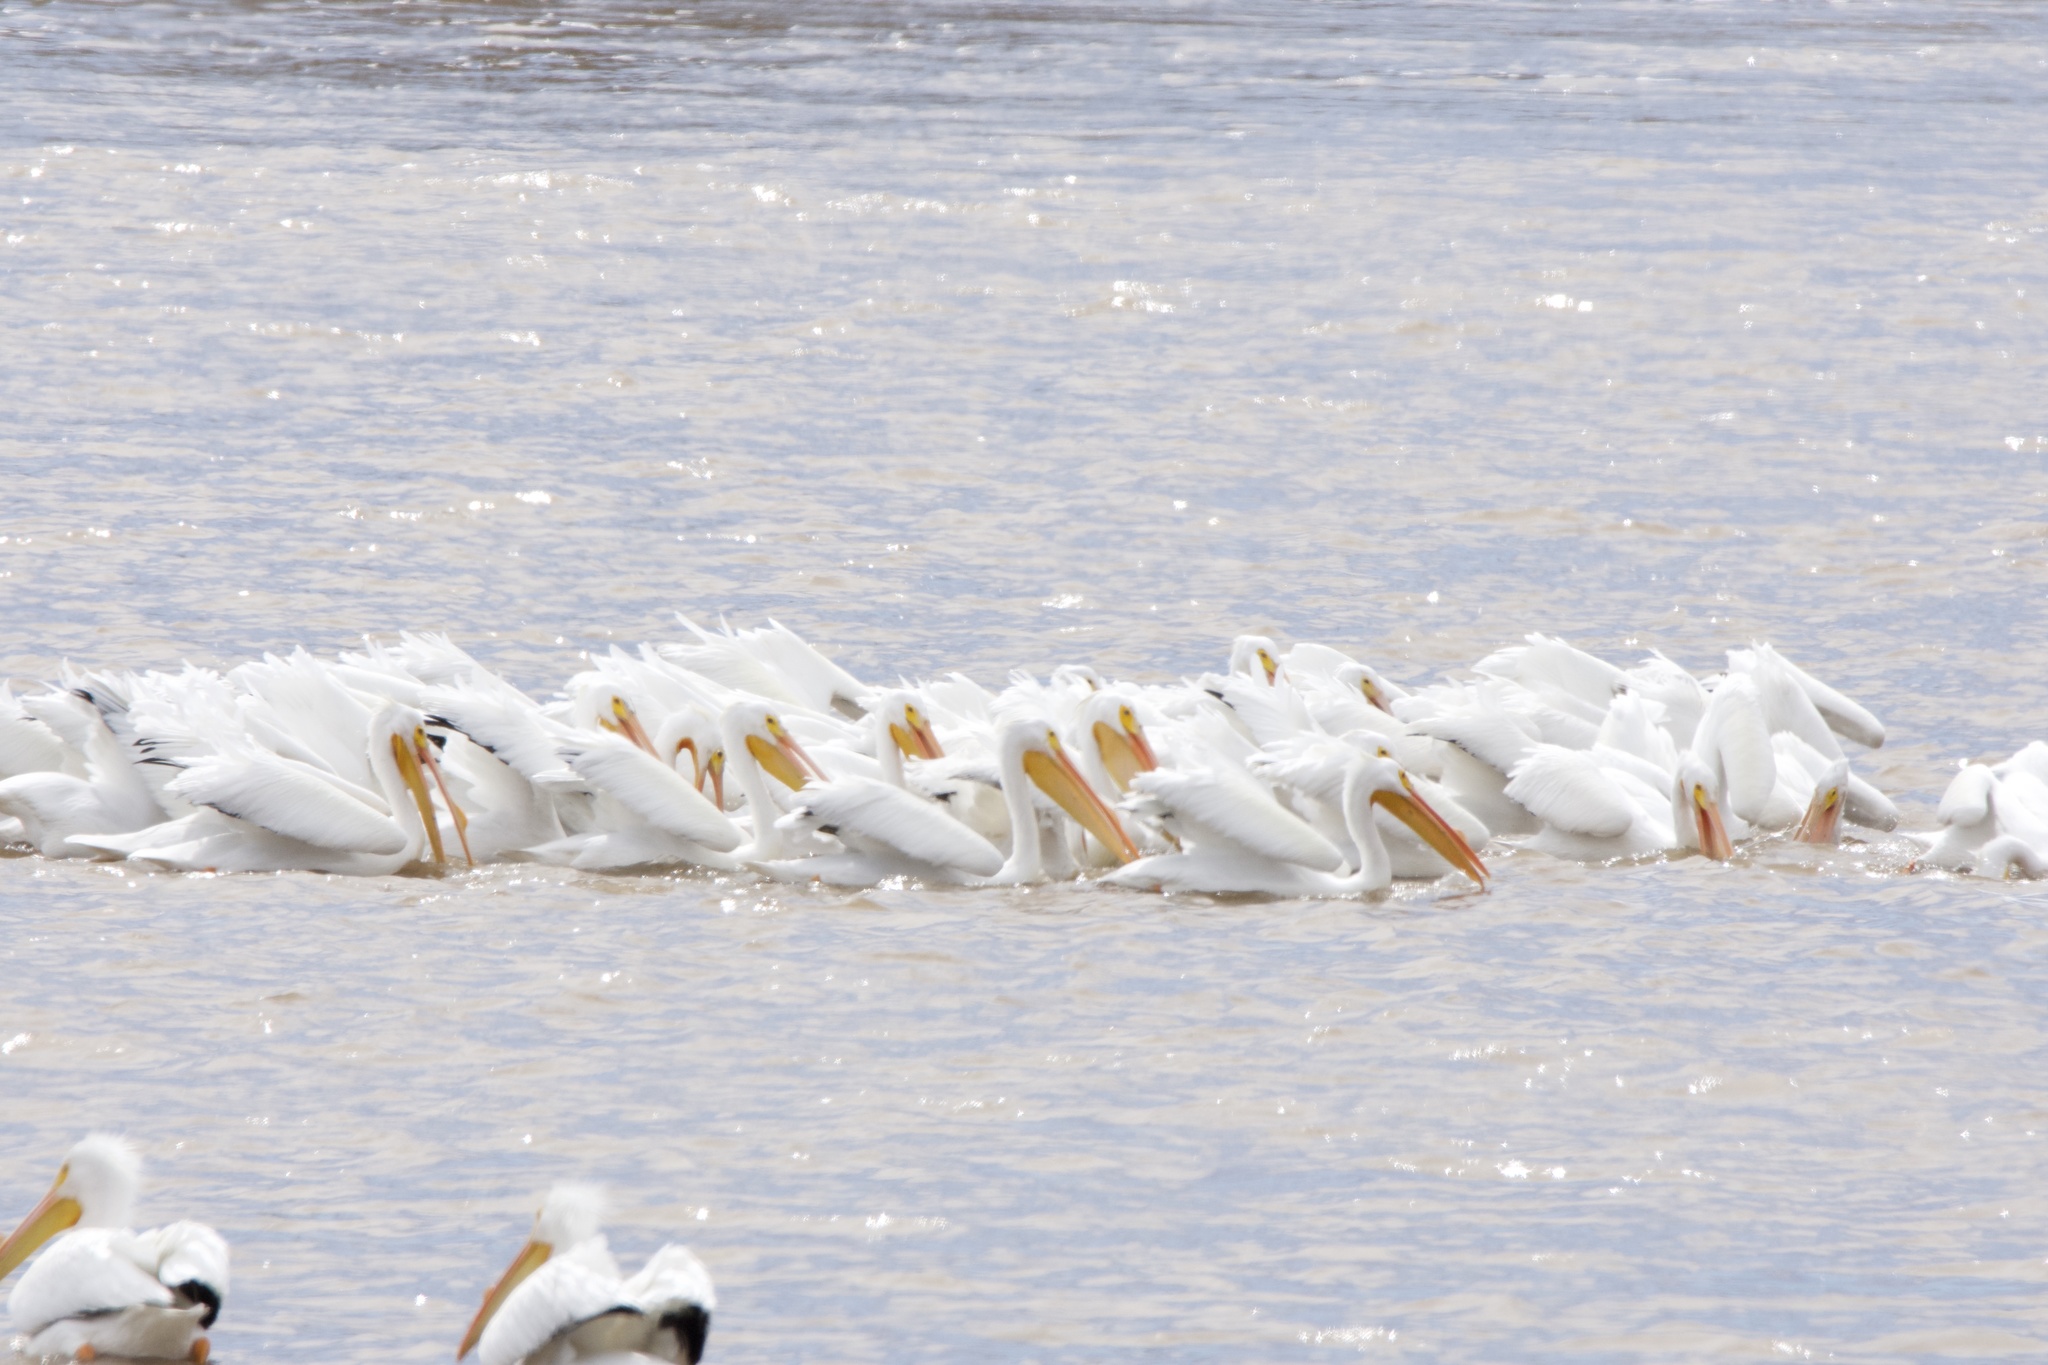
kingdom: Animalia
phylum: Chordata
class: Aves
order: Pelecaniformes
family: Pelecanidae
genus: Pelecanus
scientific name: Pelecanus erythrorhynchos
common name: American white pelican
